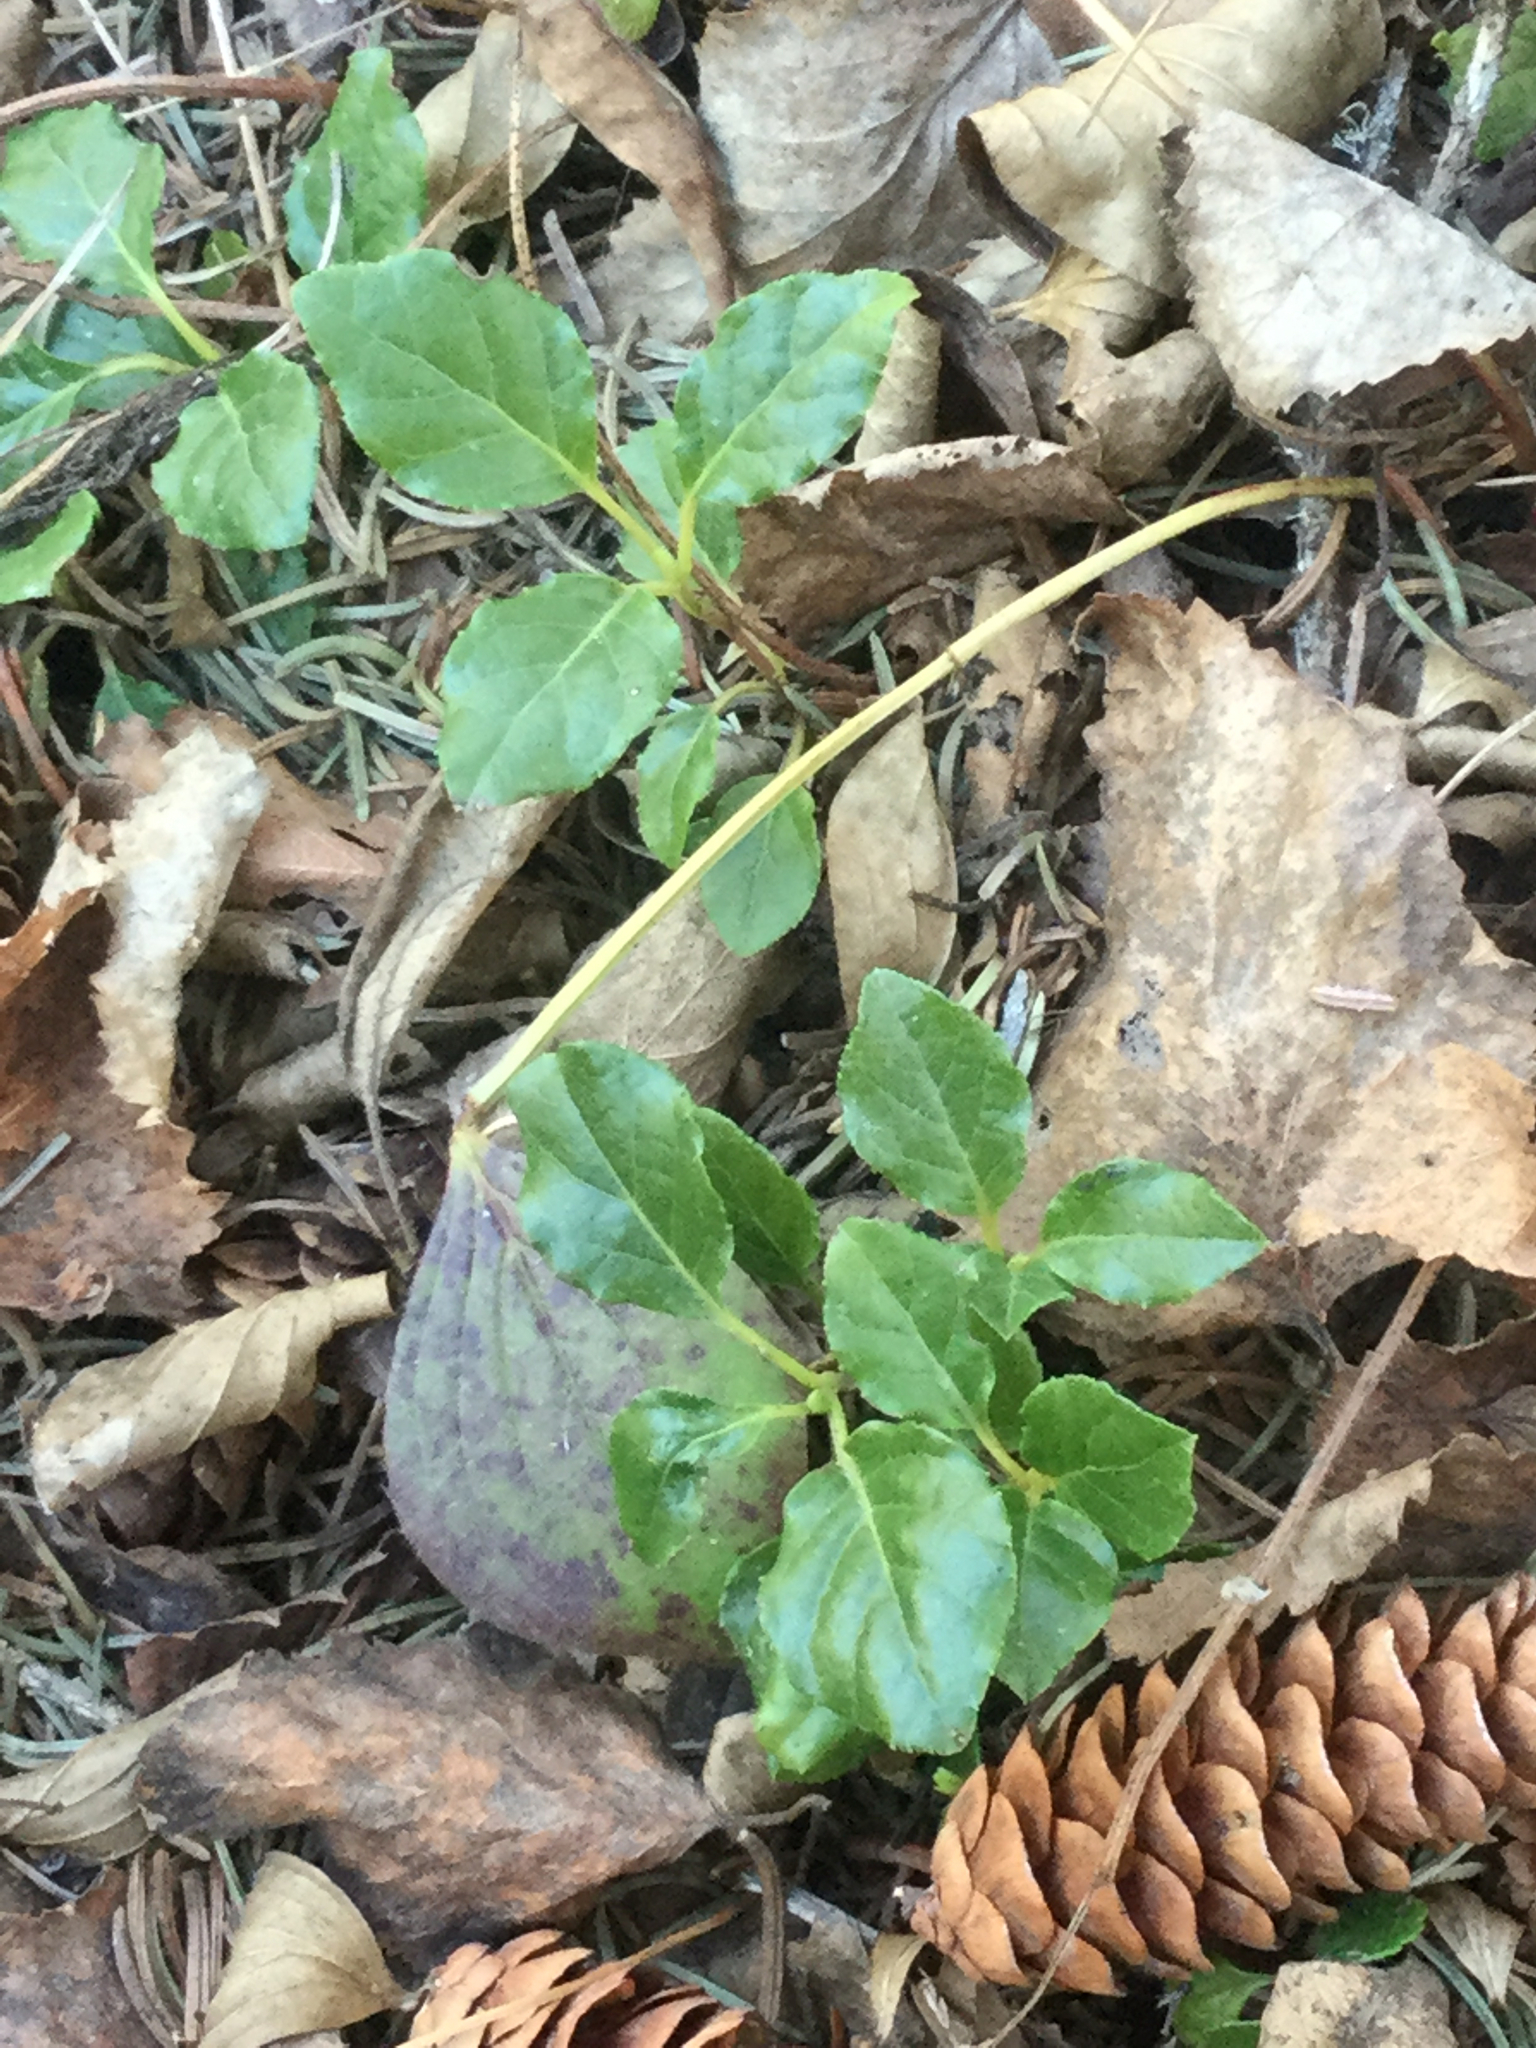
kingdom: Plantae
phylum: Tracheophyta
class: Magnoliopsida
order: Ericales
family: Ericaceae
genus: Orthilia
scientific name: Orthilia secunda
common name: One-sided orthilia
